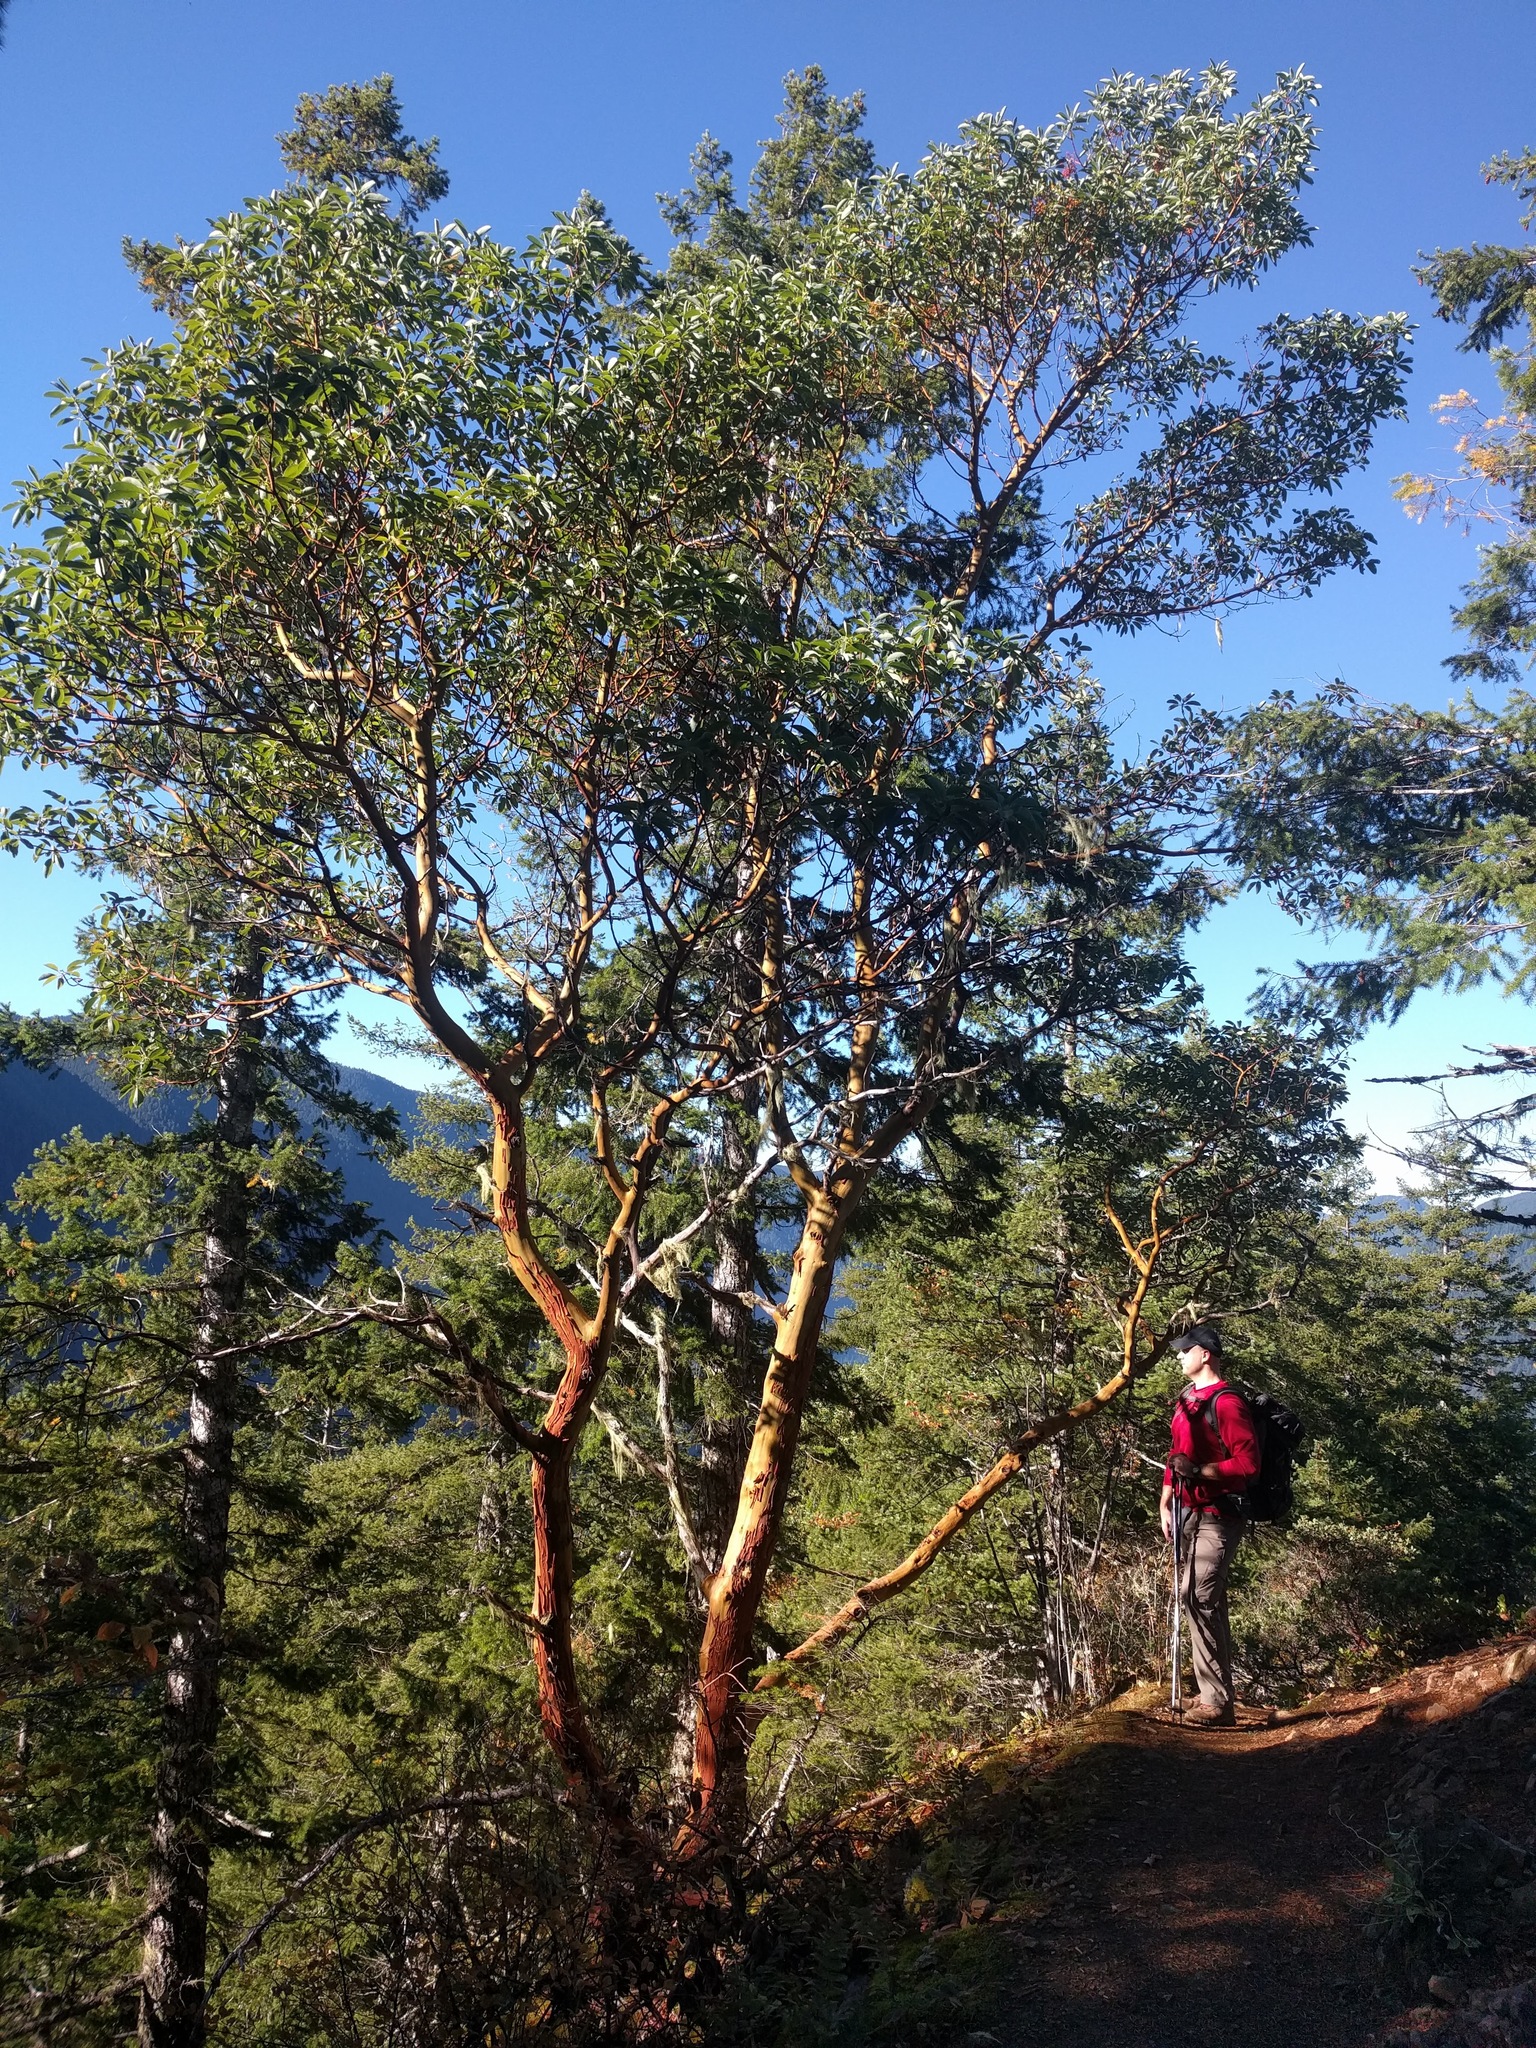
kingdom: Plantae
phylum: Tracheophyta
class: Magnoliopsida
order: Ericales
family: Ericaceae
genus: Arbutus
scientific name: Arbutus menziesii
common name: Pacific madrone
